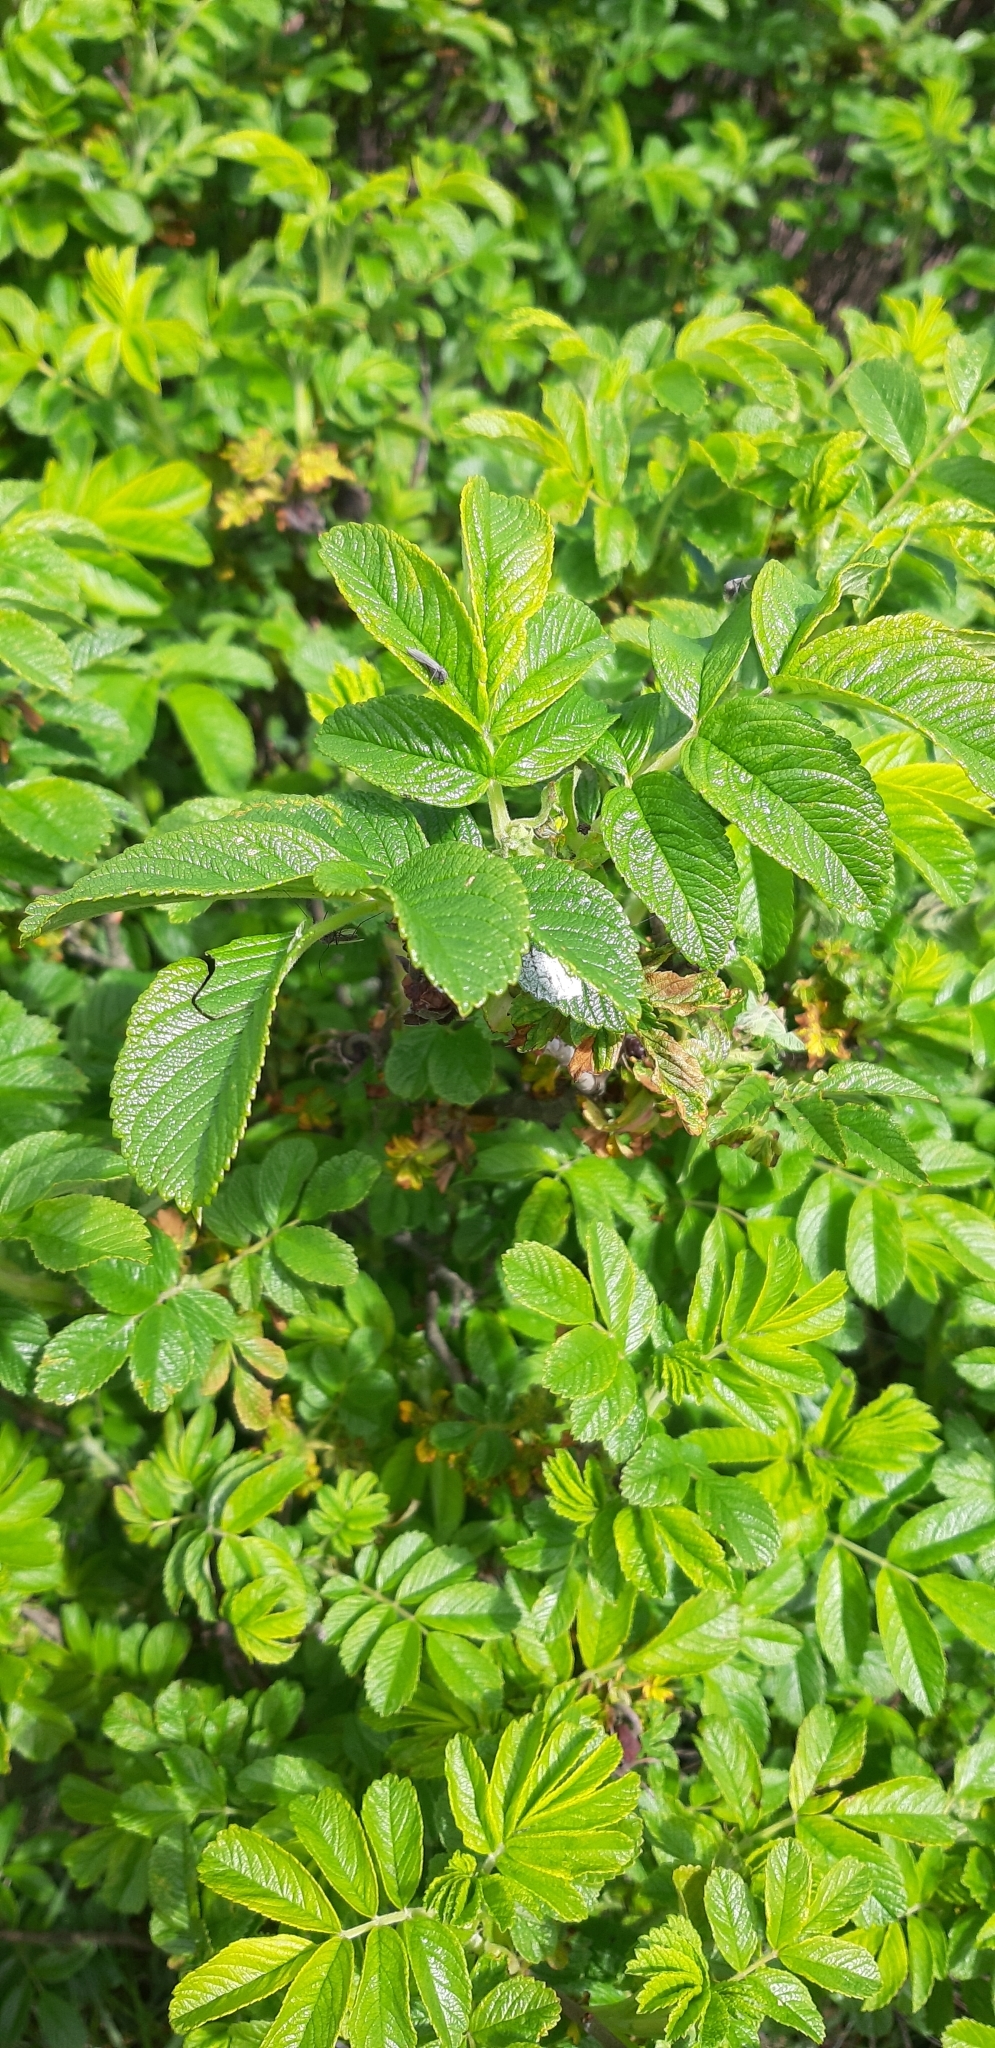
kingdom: Plantae
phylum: Tracheophyta
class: Magnoliopsida
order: Rosales
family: Rosaceae
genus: Rosa
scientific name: Rosa rugosa
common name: Japanese rose
